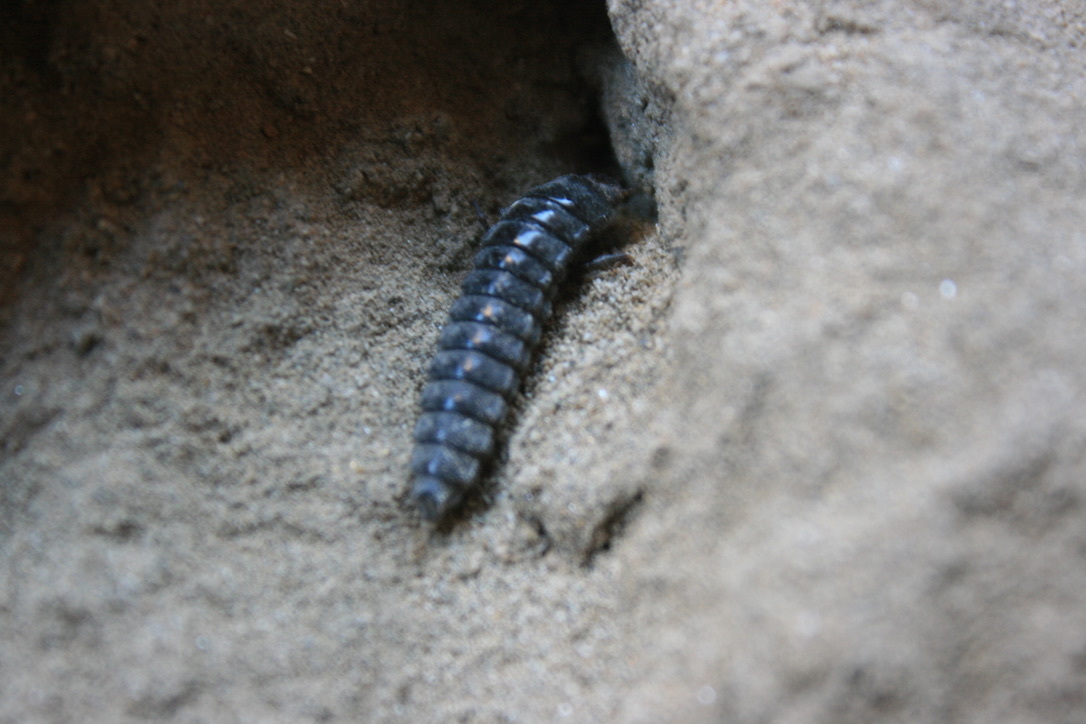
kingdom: Animalia
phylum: Arthropoda
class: Insecta
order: Coleoptera
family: Carabidae
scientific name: Carabidae
